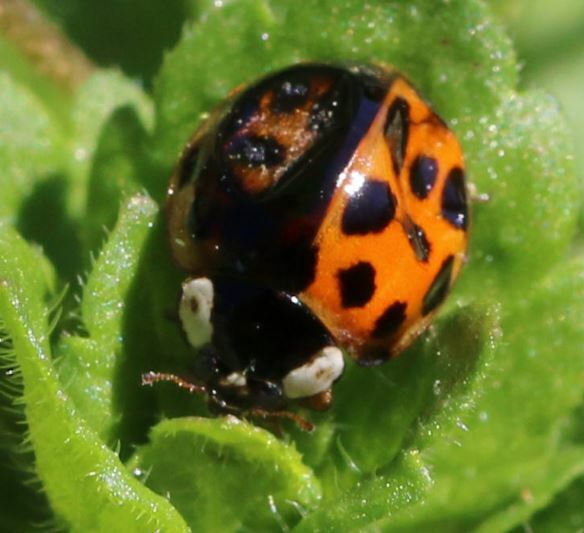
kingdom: Animalia
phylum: Arthropoda
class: Insecta
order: Coleoptera
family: Coccinellidae
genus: Harmonia
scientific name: Harmonia axyridis
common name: Harlequin ladybird
